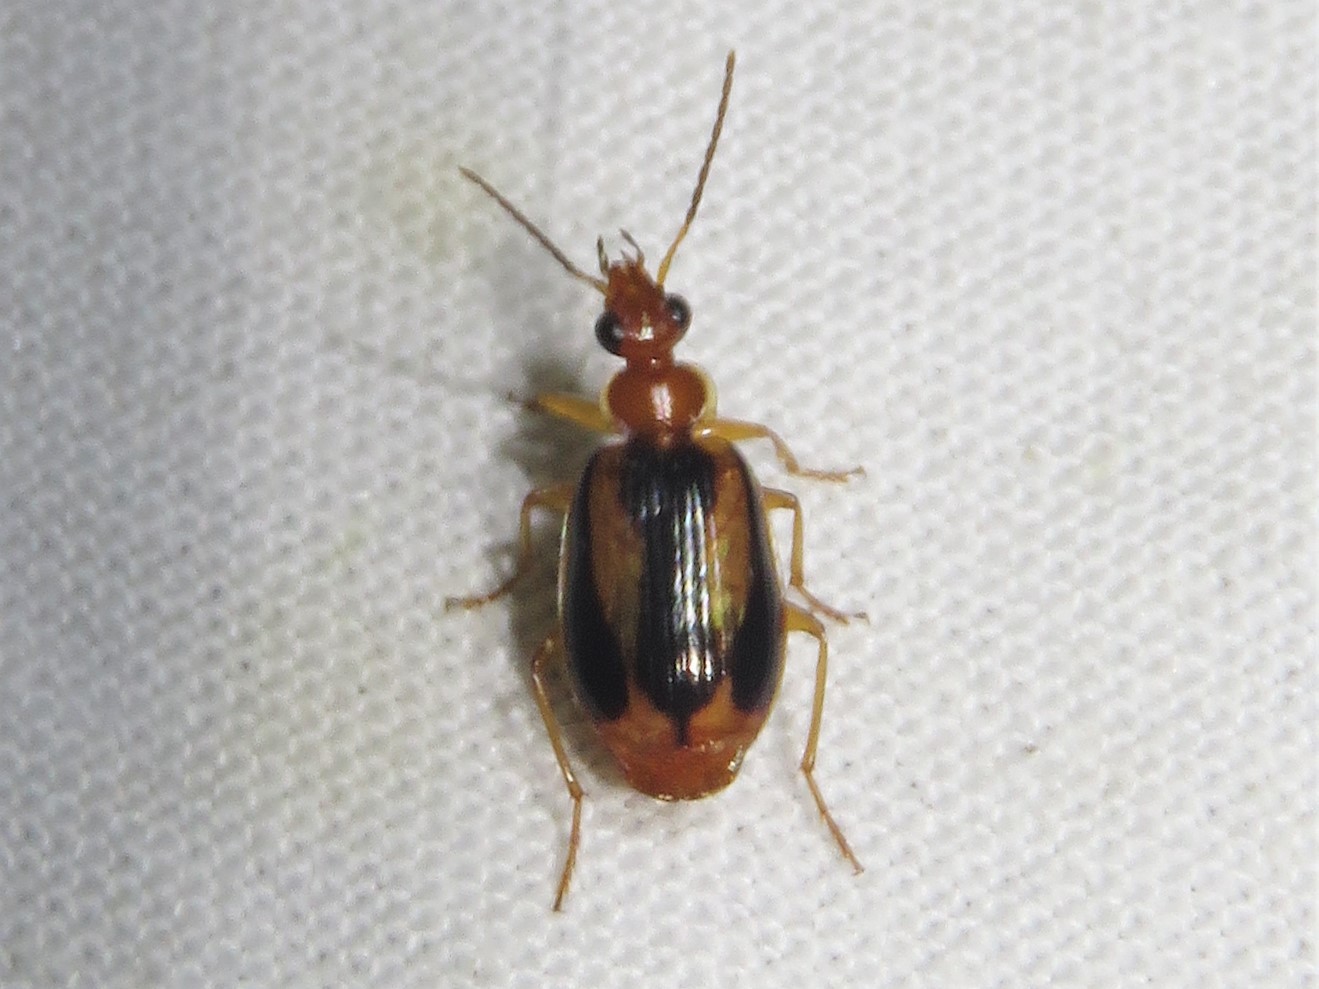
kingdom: Animalia
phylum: Arthropoda
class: Insecta
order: Coleoptera
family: Carabidae
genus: Lebia
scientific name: Lebia solea
